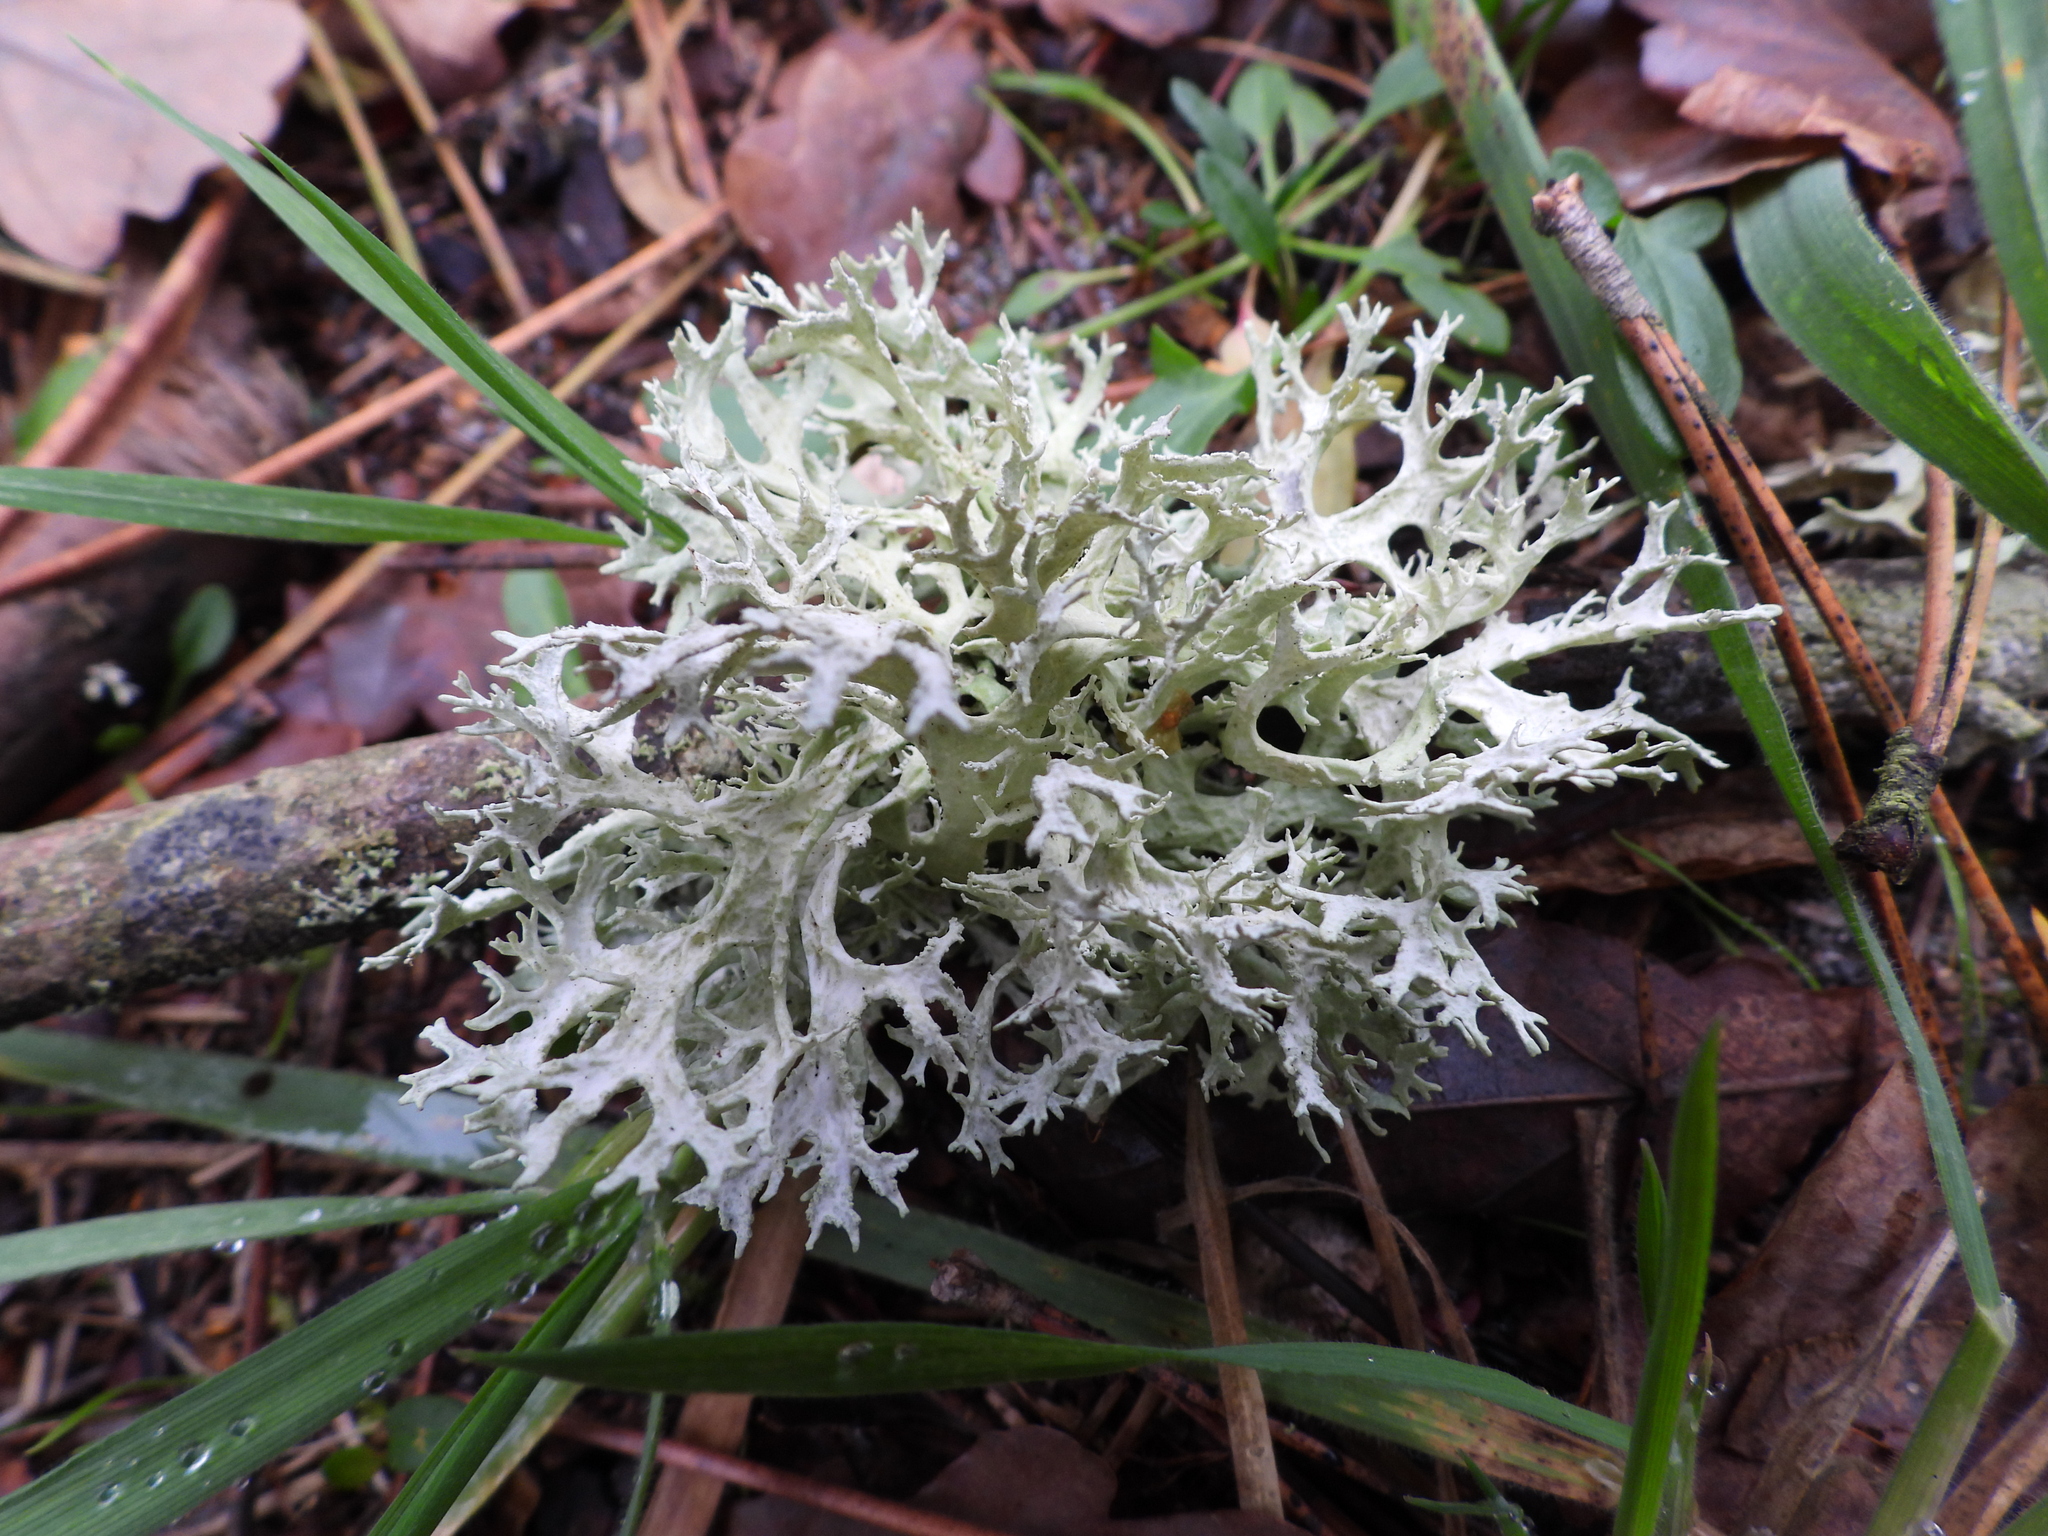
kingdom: Fungi
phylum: Ascomycota
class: Lecanoromycetes
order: Lecanorales
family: Parmeliaceae
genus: Evernia
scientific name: Evernia prunastri
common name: Oak moss
